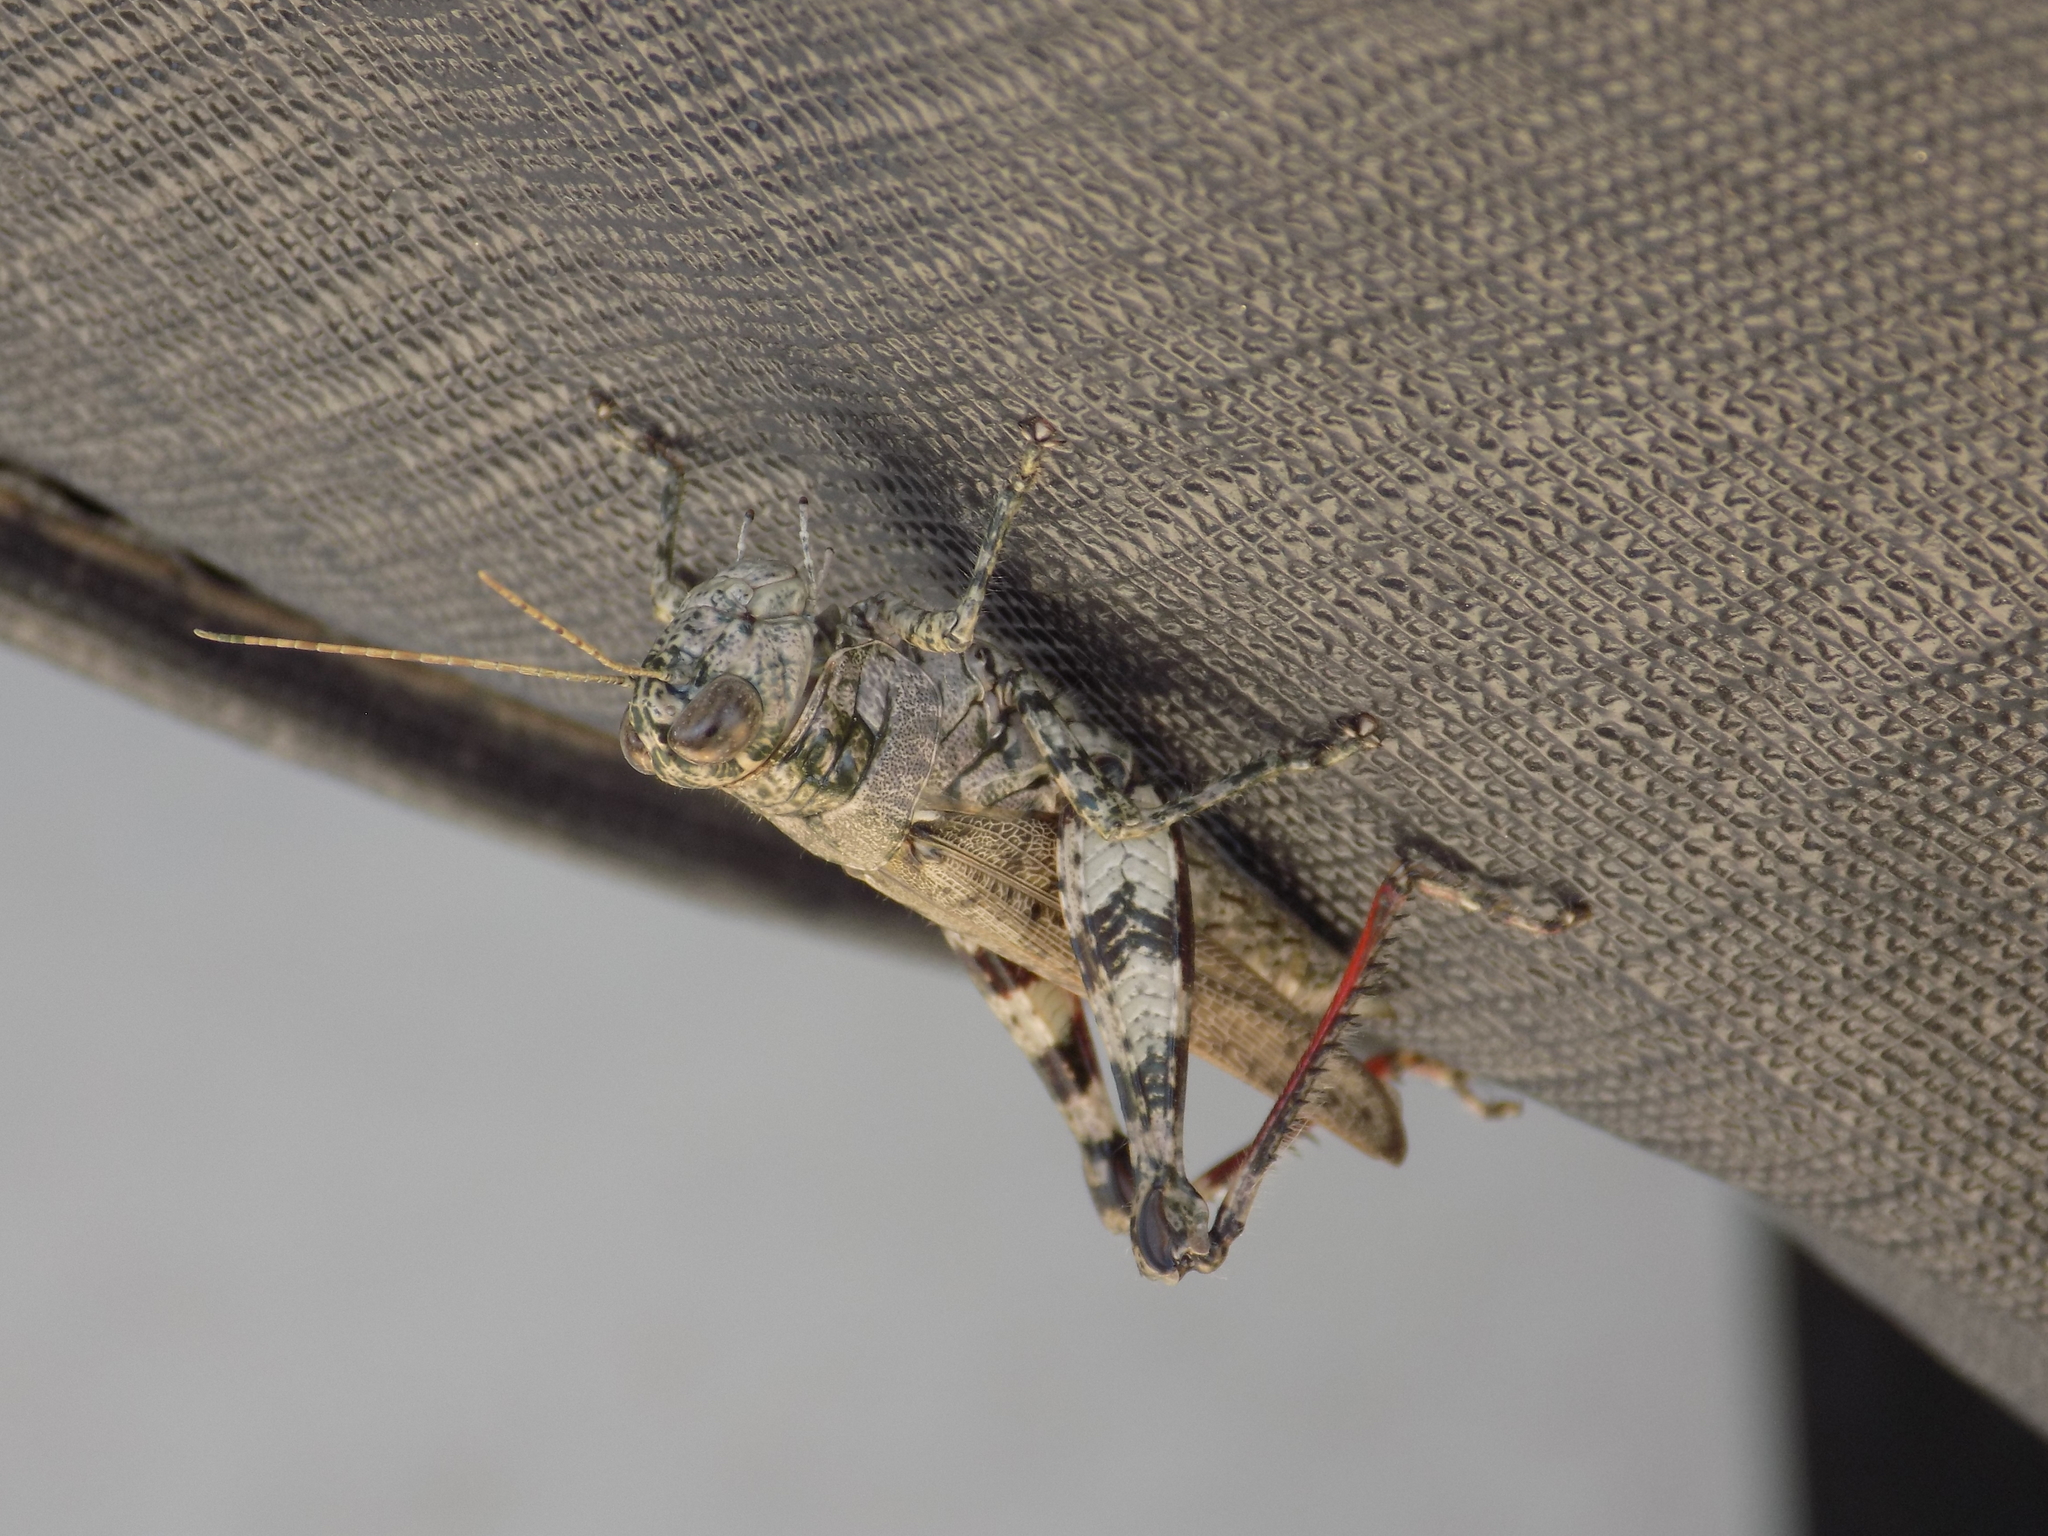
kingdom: Animalia
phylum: Arthropoda
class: Insecta
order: Orthoptera
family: Acrididae
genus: Melanoplus
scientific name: Melanoplus punctulatus
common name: Pine-tree spur-throat grasshopper
